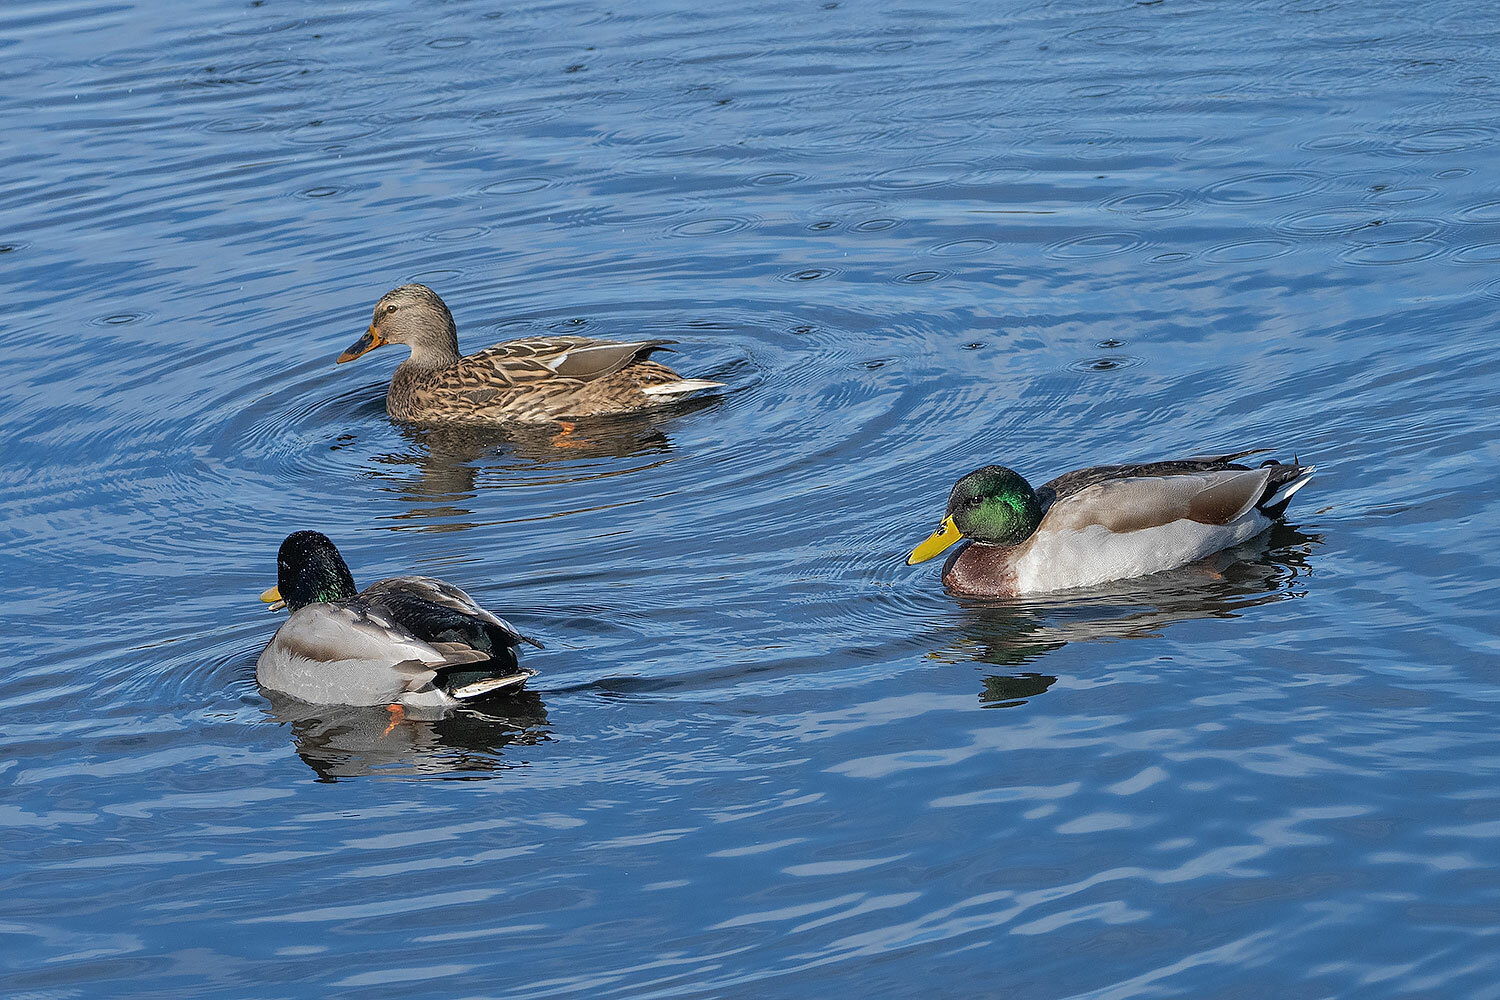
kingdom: Animalia
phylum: Chordata
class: Aves
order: Anseriformes
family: Anatidae
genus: Anas
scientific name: Anas platyrhynchos
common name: Mallard
